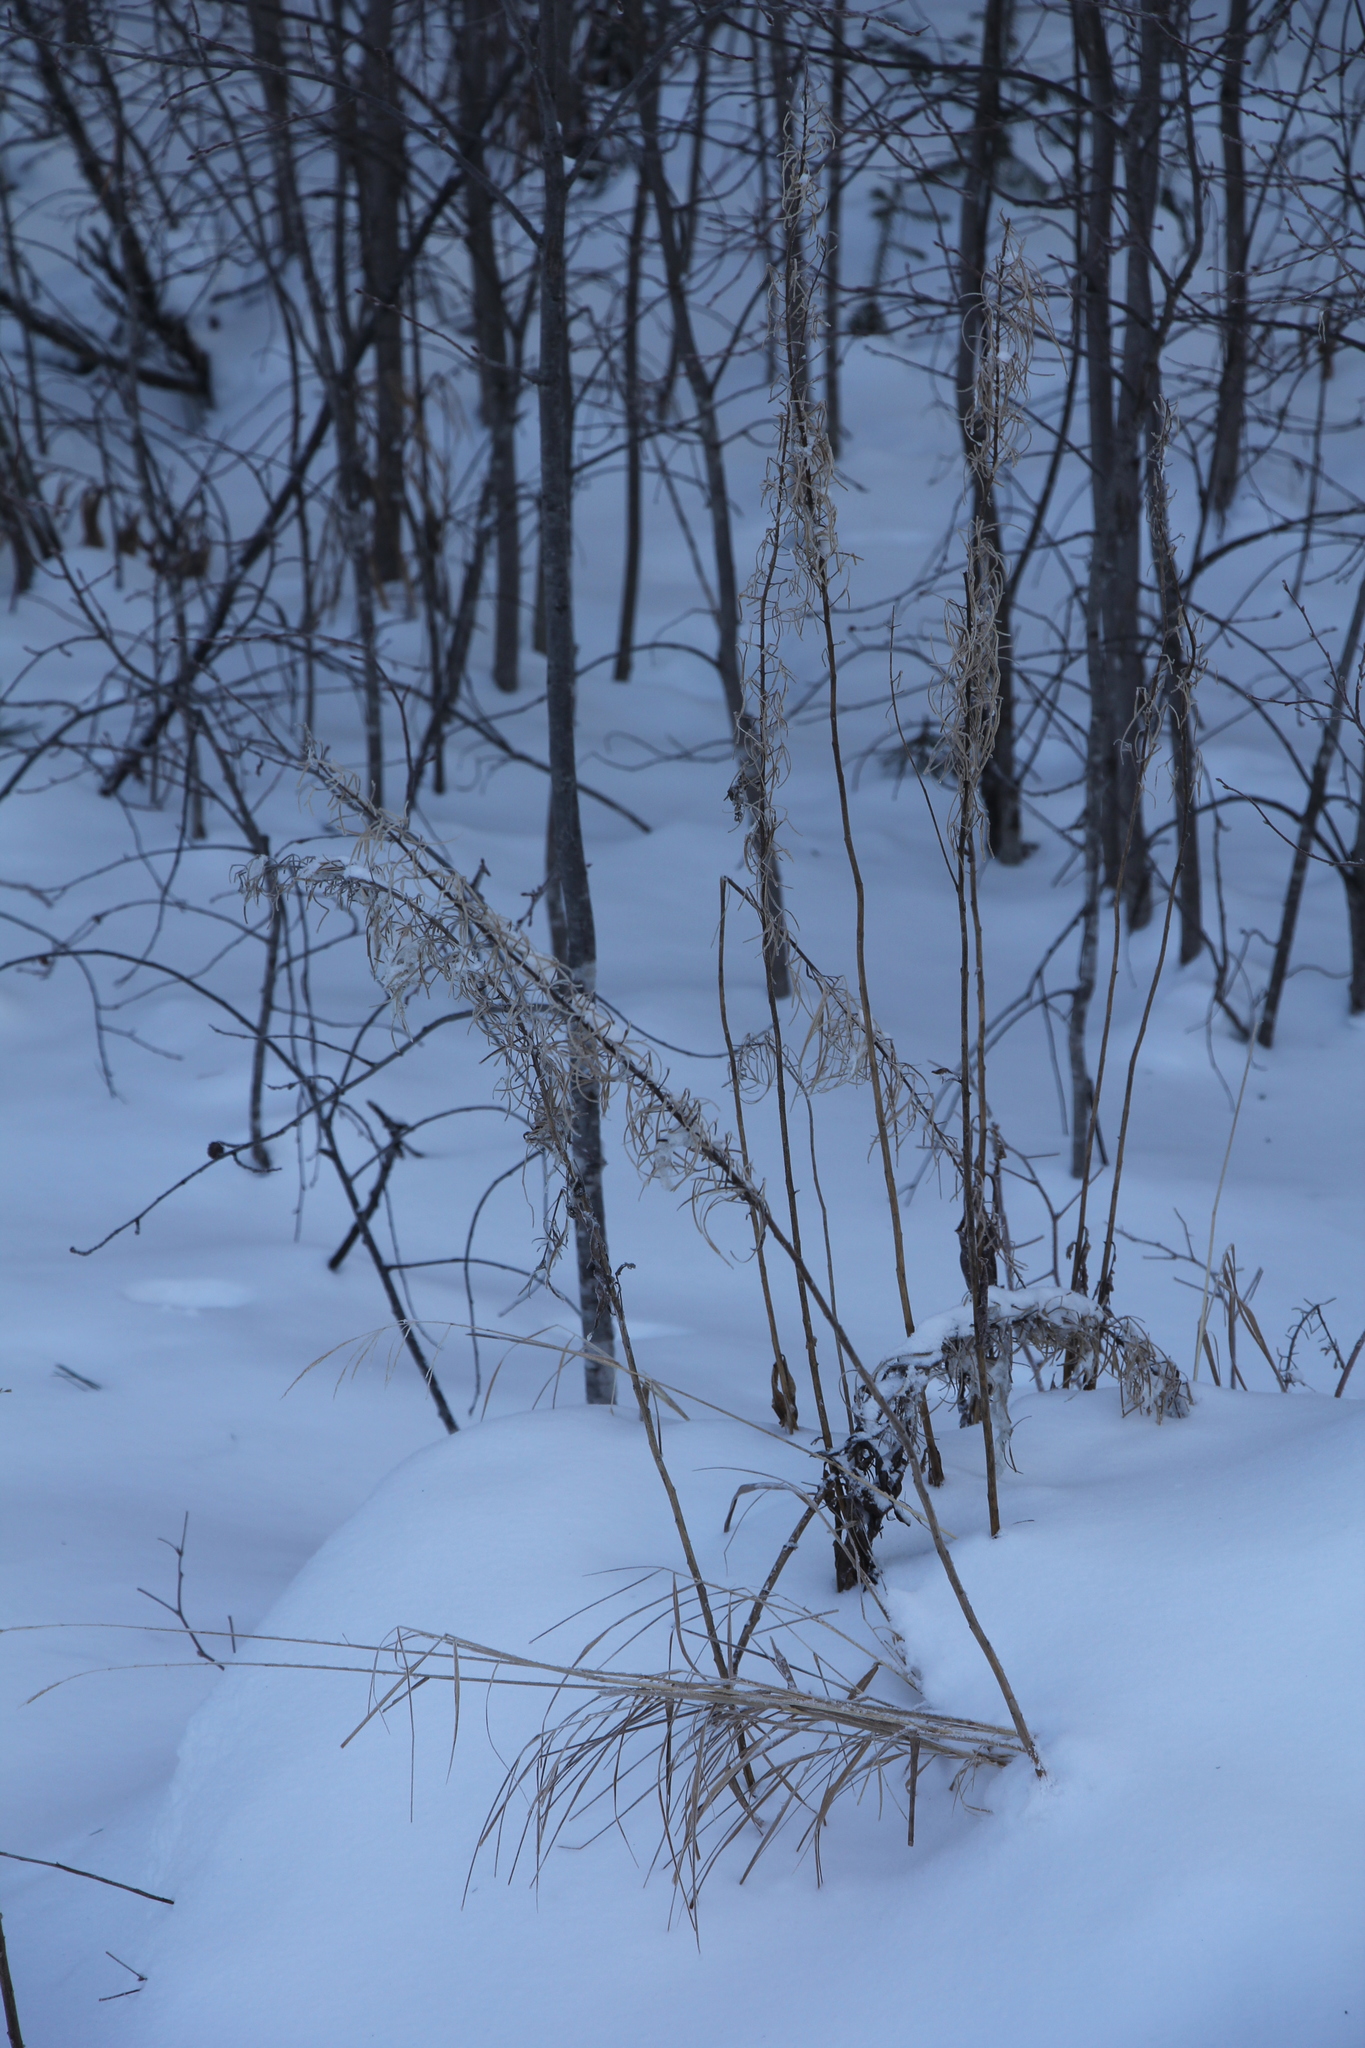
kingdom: Plantae
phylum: Tracheophyta
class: Magnoliopsida
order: Myrtales
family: Onagraceae
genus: Chamaenerion
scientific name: Chamaenerion angustifolium
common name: Fireweed
